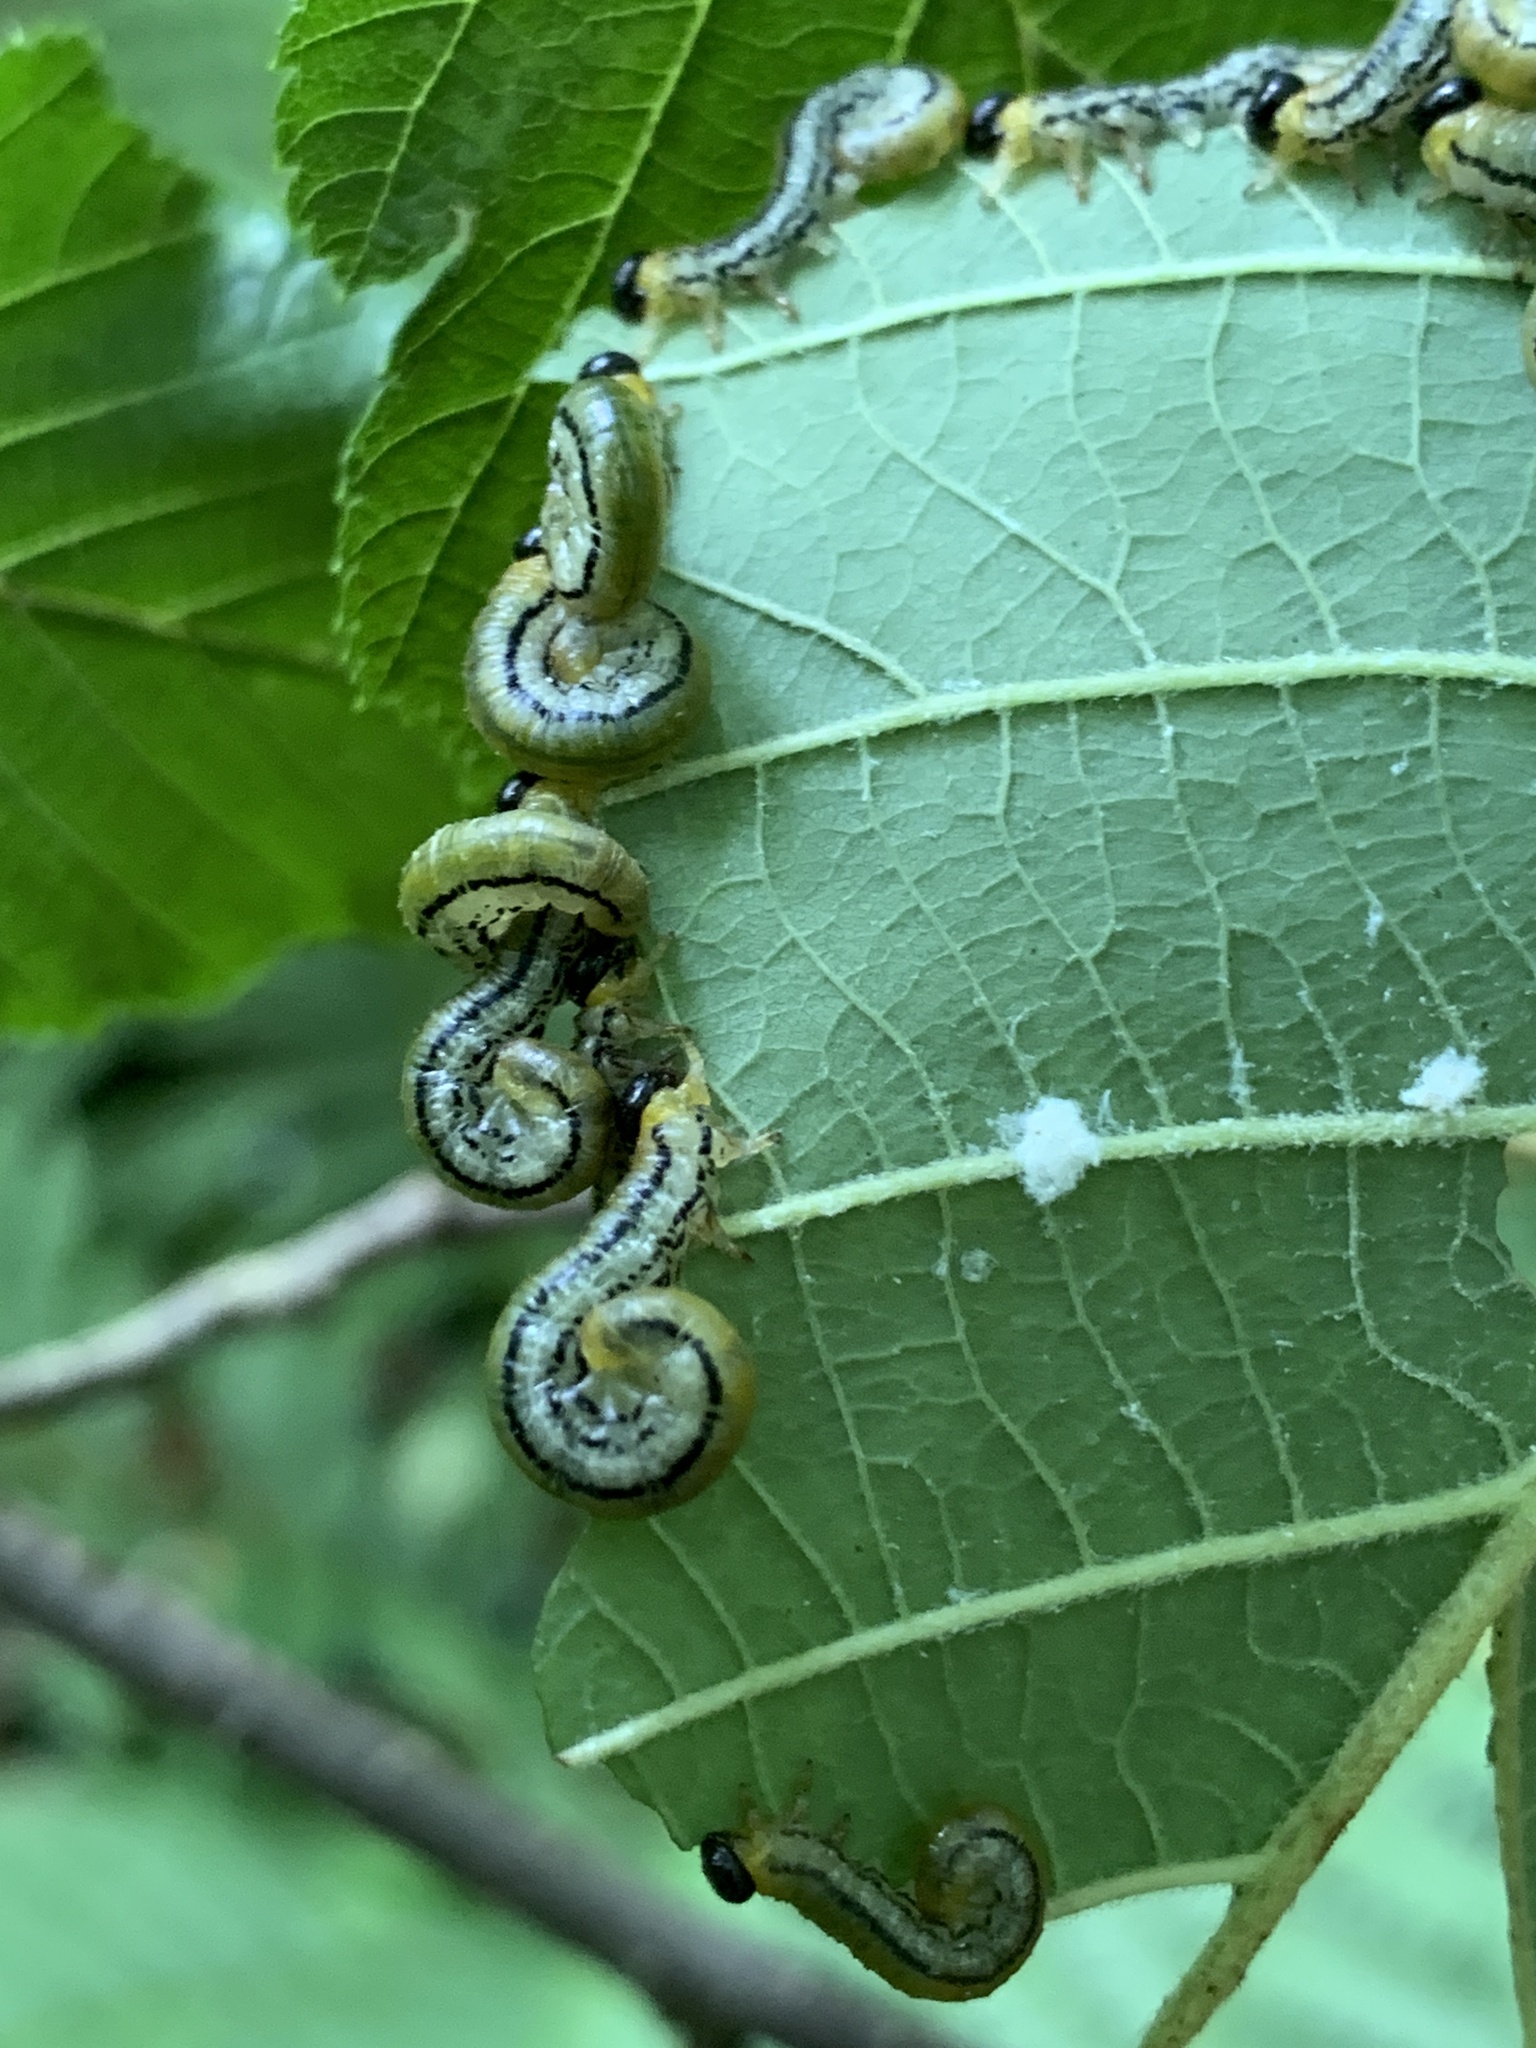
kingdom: Animalia
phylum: Arthropoda
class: Insecta
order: Hymenoptera
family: Tenthredinidae
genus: Hemichroa
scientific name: Hemichroa crocea
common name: Striped alder sawfly
